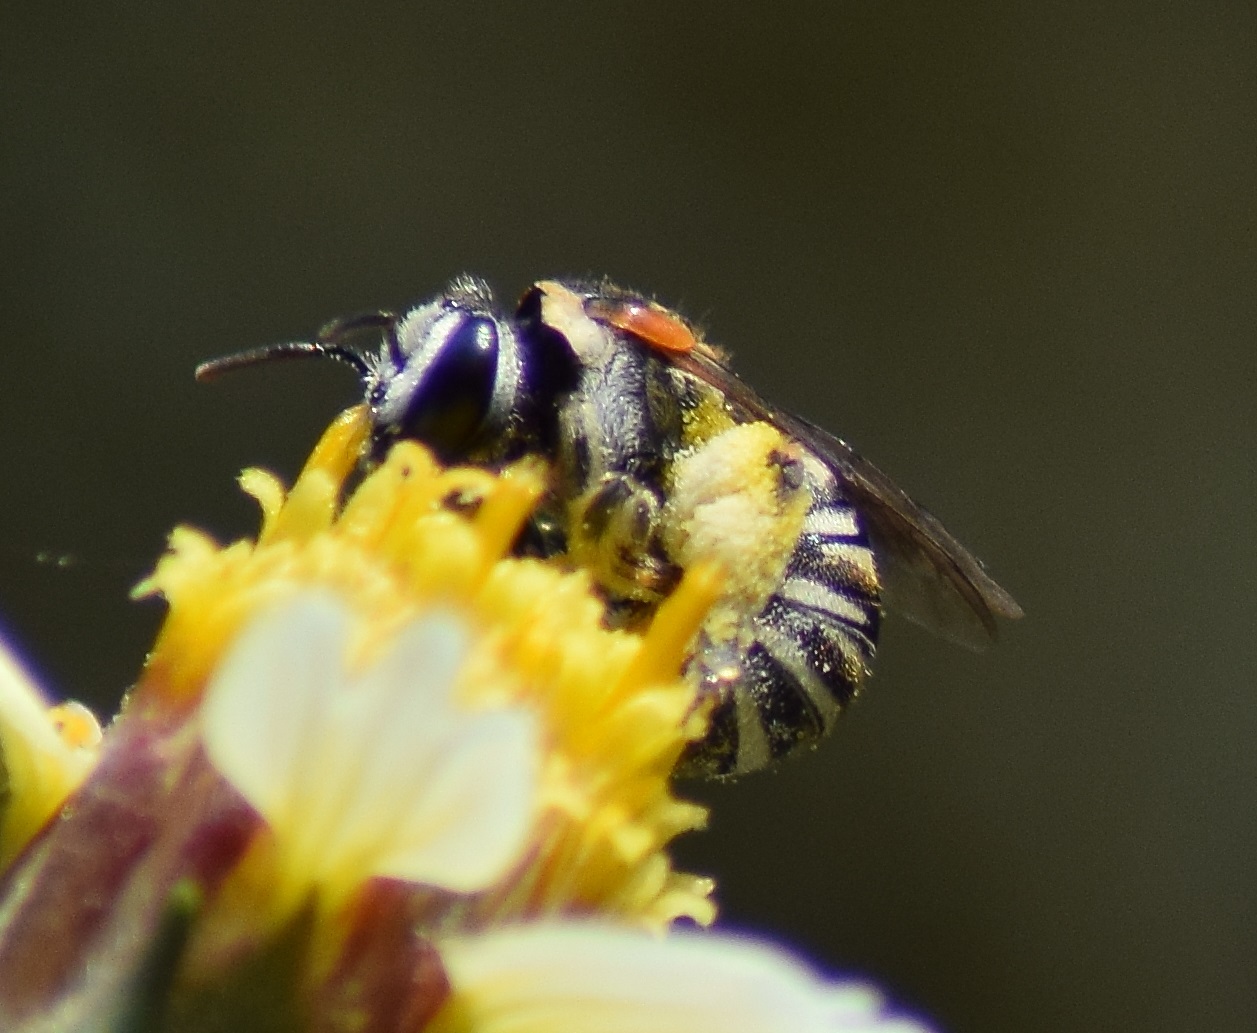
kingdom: Animalia
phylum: Arthropoda
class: Insecta
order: Hymenoptera
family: Halictidae
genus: Pseudapis
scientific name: Pseudapis oxybeloides
